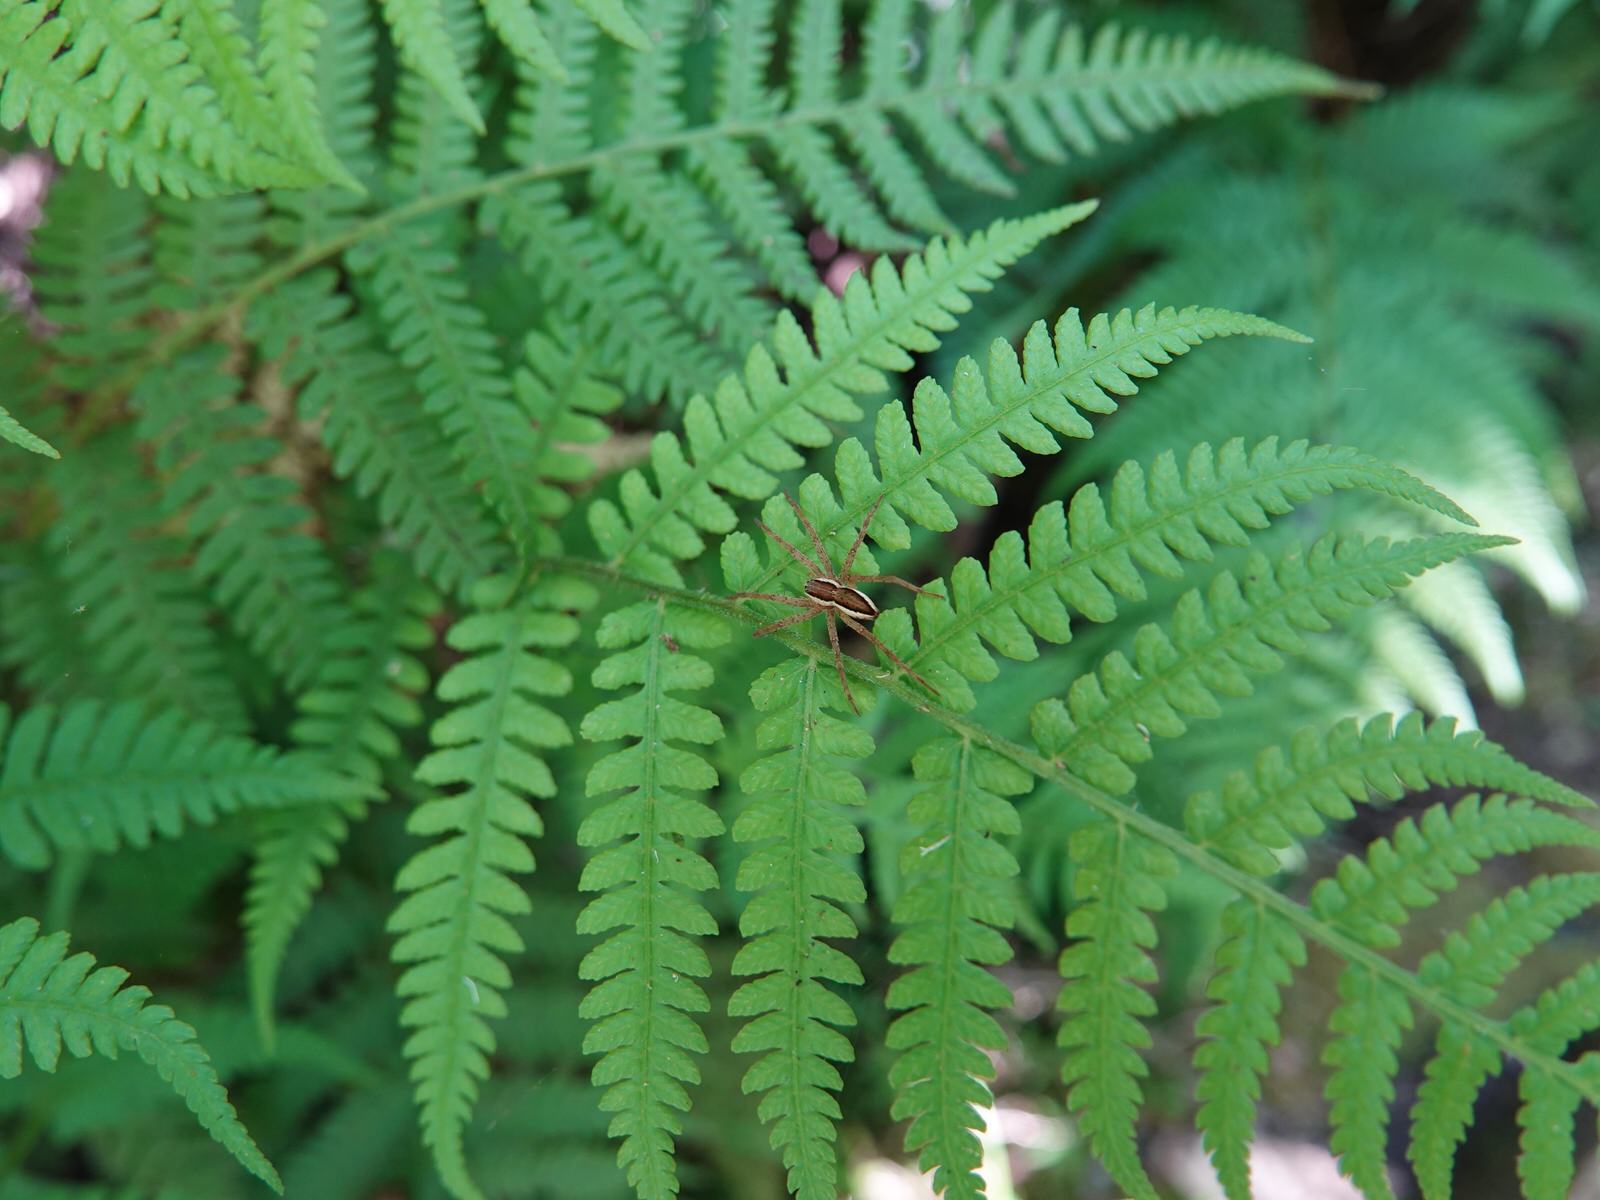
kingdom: Animalia
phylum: Arthropoda
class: Arachnida
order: Araneae
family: Pisauridae
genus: Dolomedes
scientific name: Dolomedes minor
